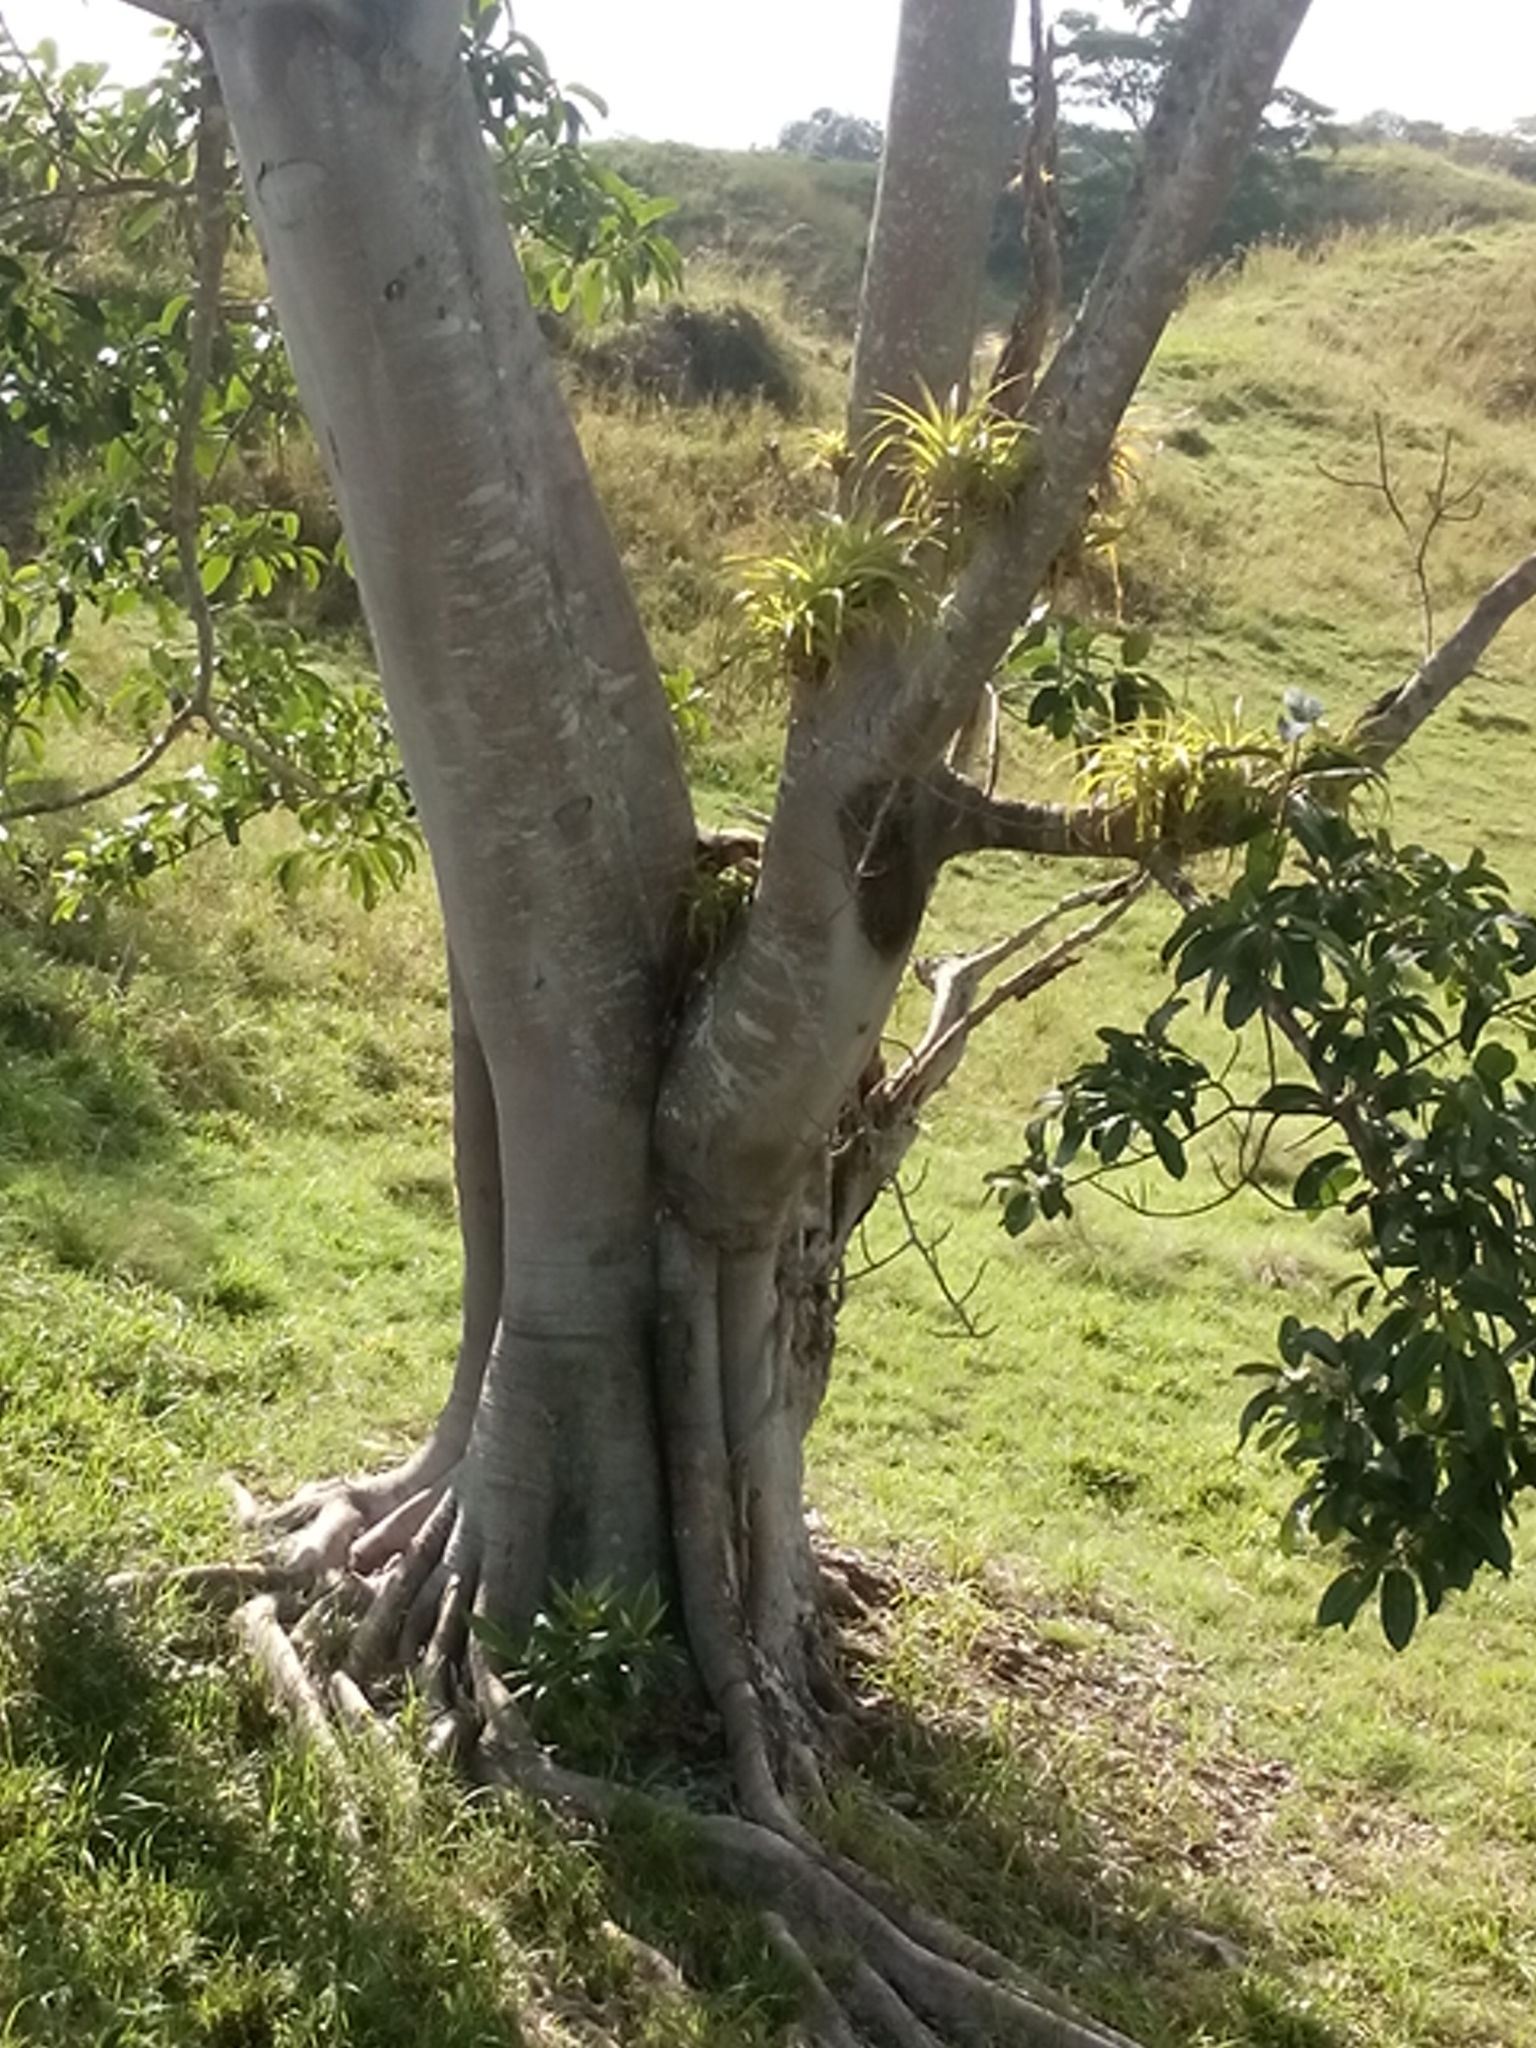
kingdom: Animalia
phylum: Chordata
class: Mammalia
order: Pilosa
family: Myrmecophagidae
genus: Tamandua
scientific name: Tamandua mexicana
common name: Northern tamandua
